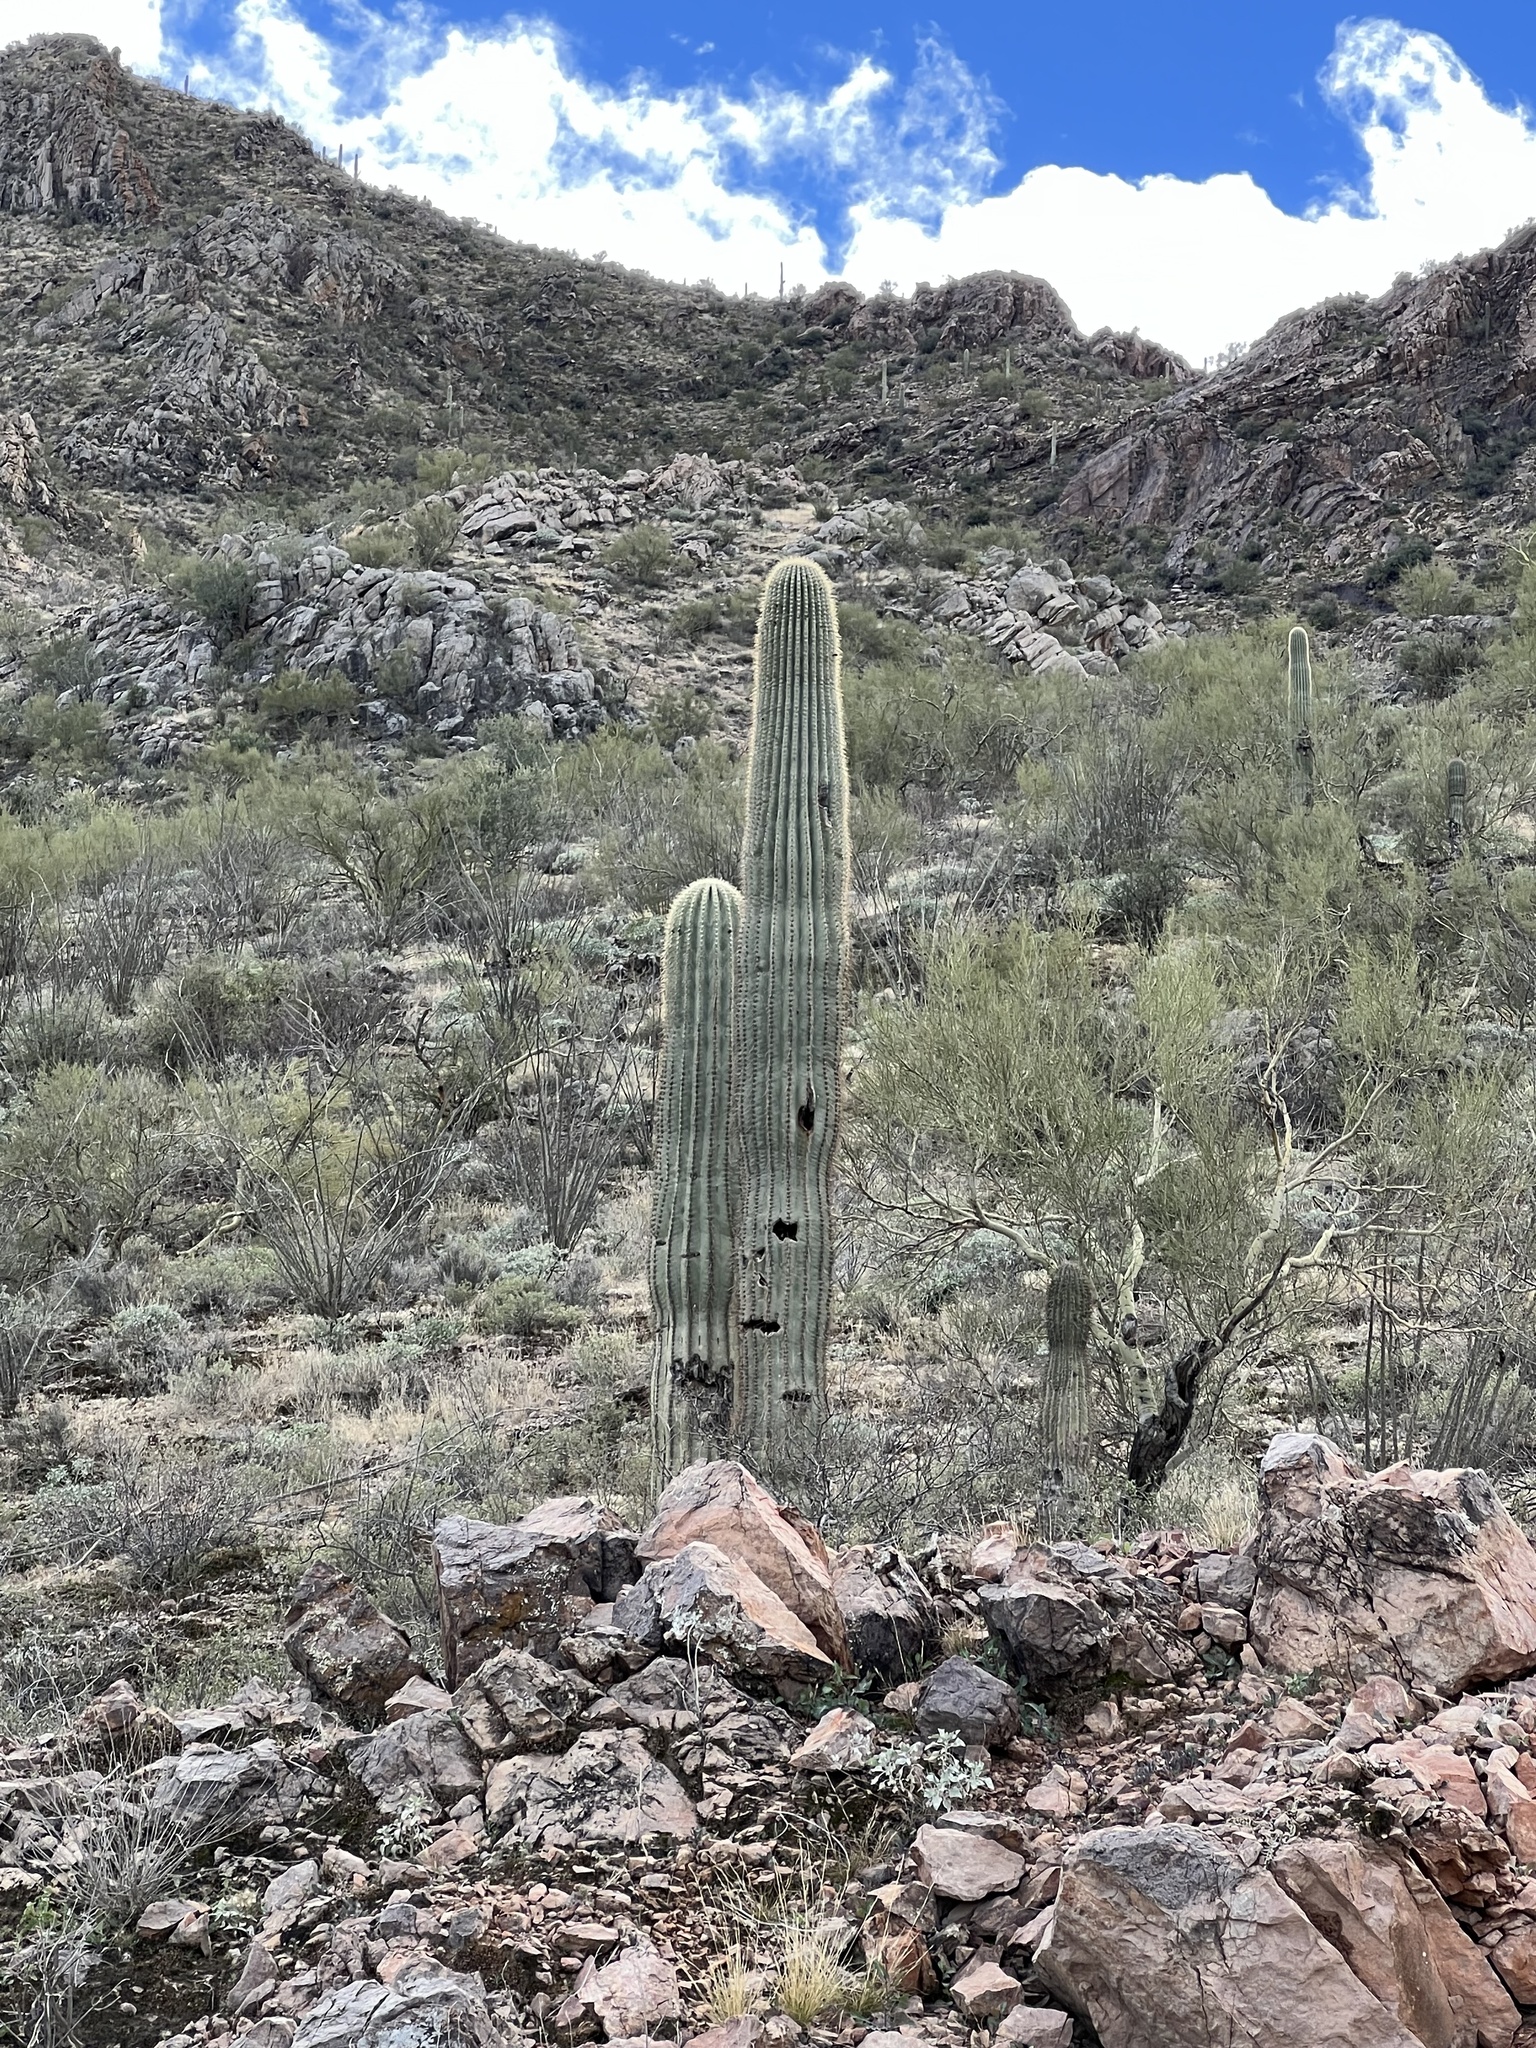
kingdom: Plantae
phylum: Tracheophyta
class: Magnoliopsida
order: Caryophyllales
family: Cactaceae
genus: Carnegiea
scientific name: Carnegiea gigantea
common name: Saguaro
